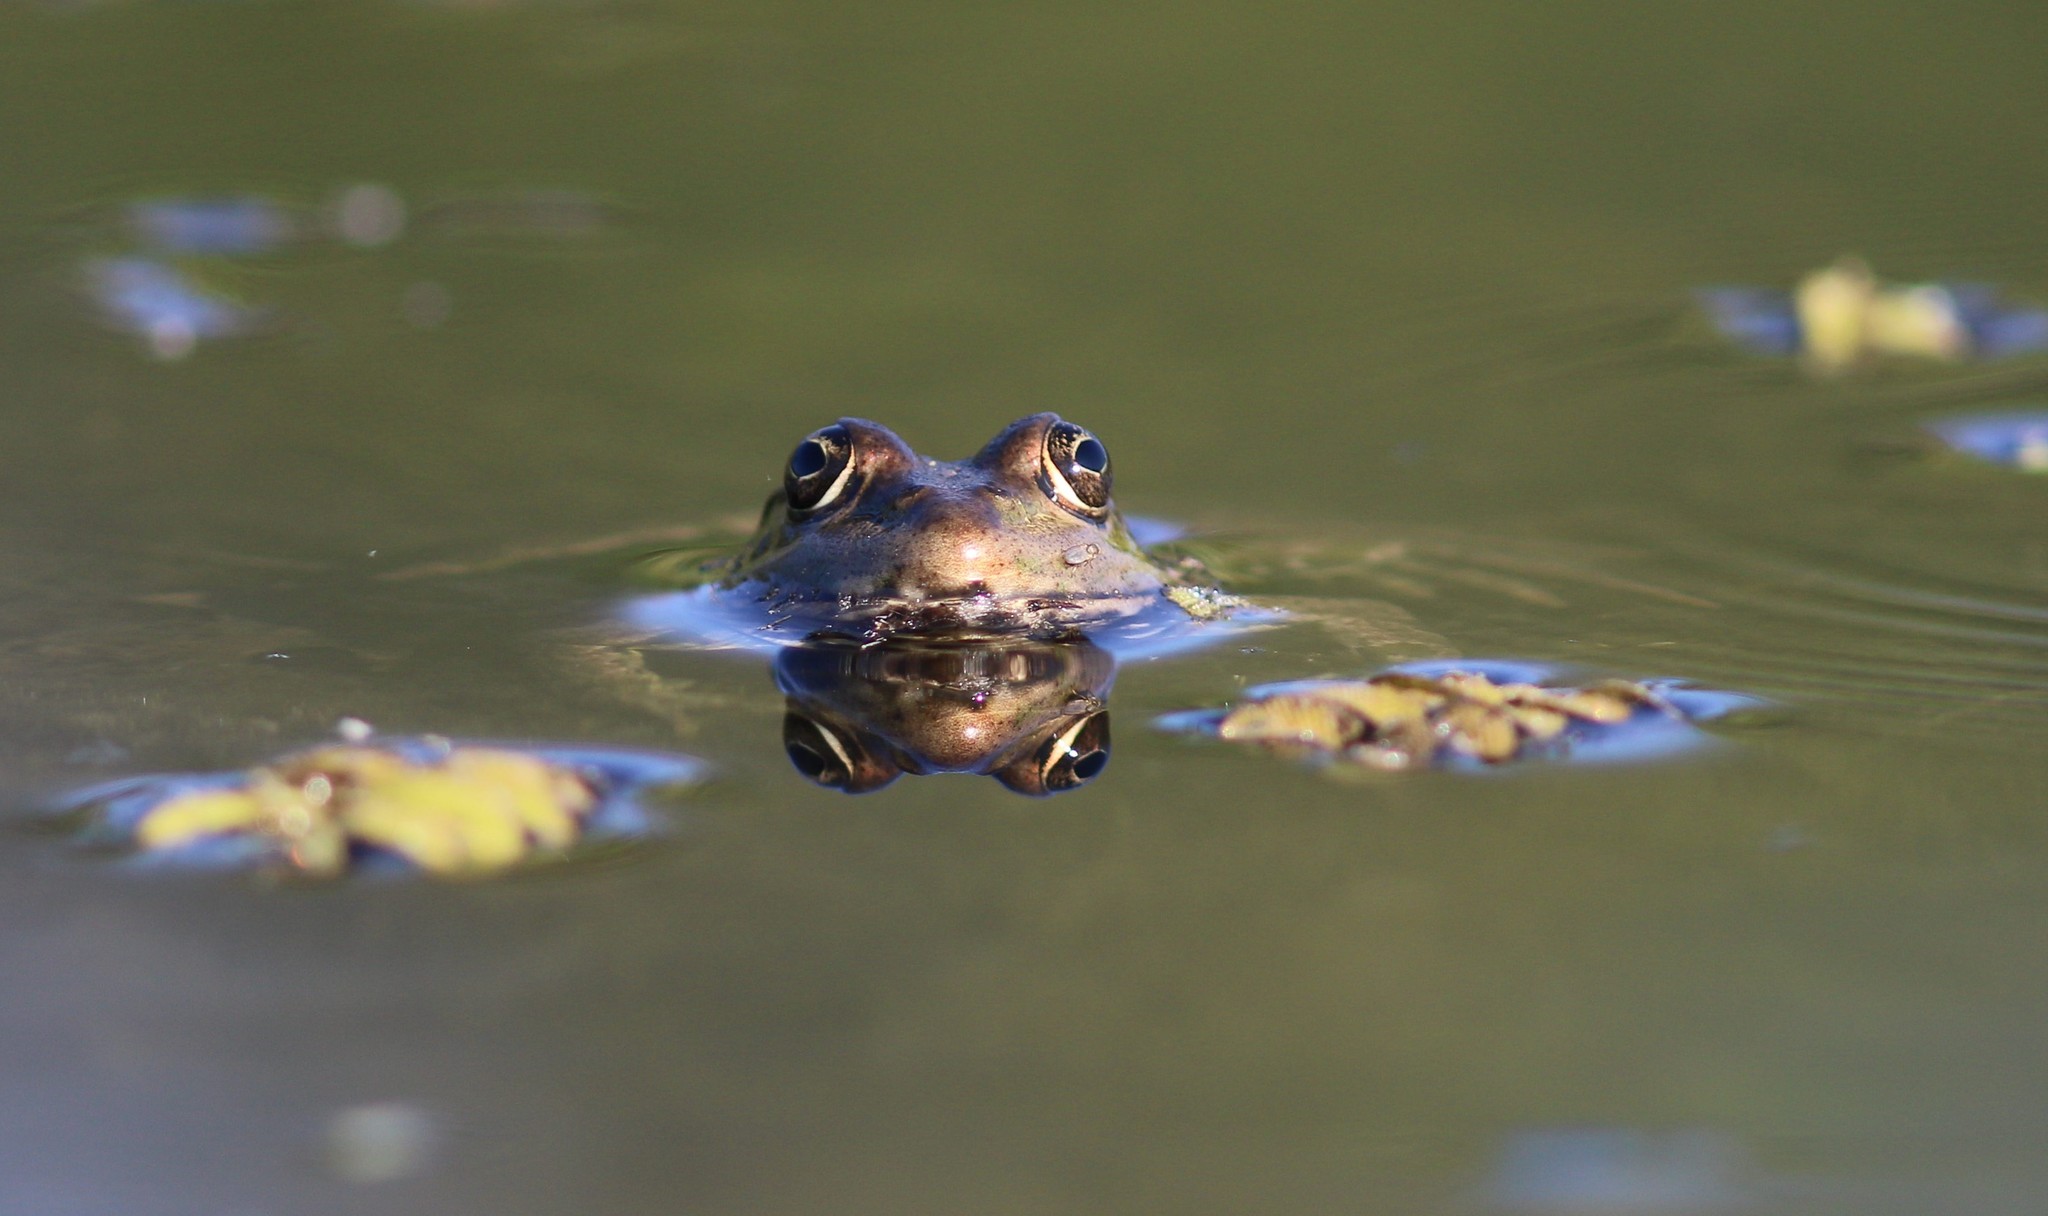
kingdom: Animalia
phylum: Chordata
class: Amphibia
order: Anura
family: Ranidae
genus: Pelophylax
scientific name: Pelophylax ridibundus
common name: Marsh frog
